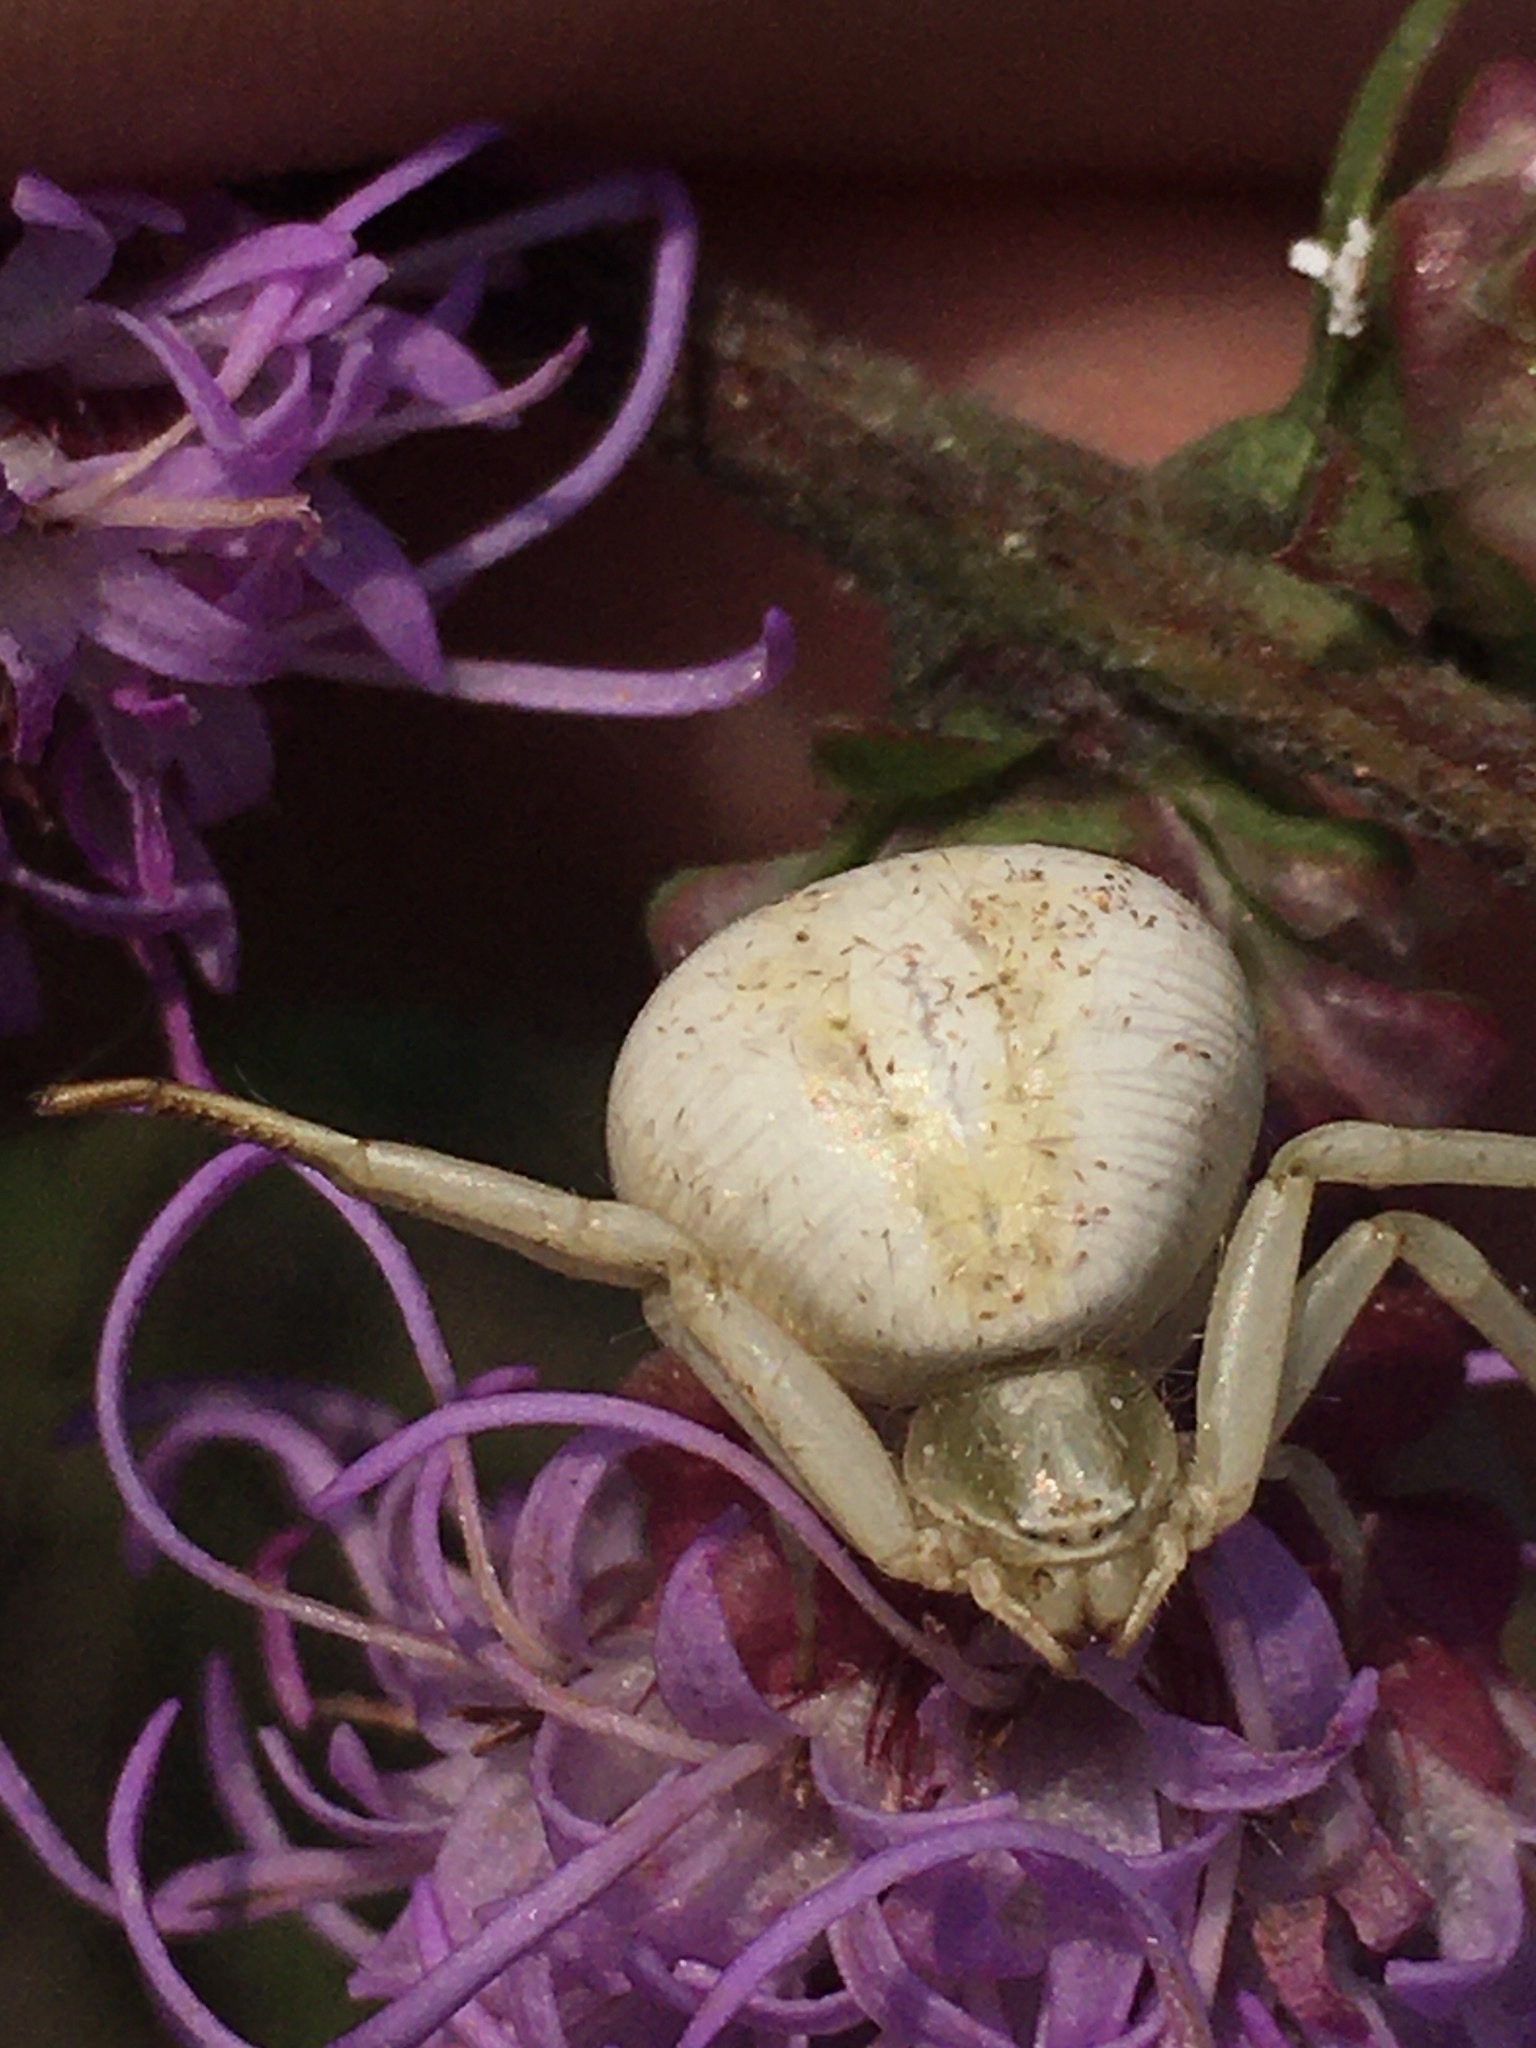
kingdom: Animalia
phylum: Arthropoda
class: Arachnida
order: Araneae
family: Thomisidae
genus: Misumenoides
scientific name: Misumenoides formosipes
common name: White-banded crab spider
